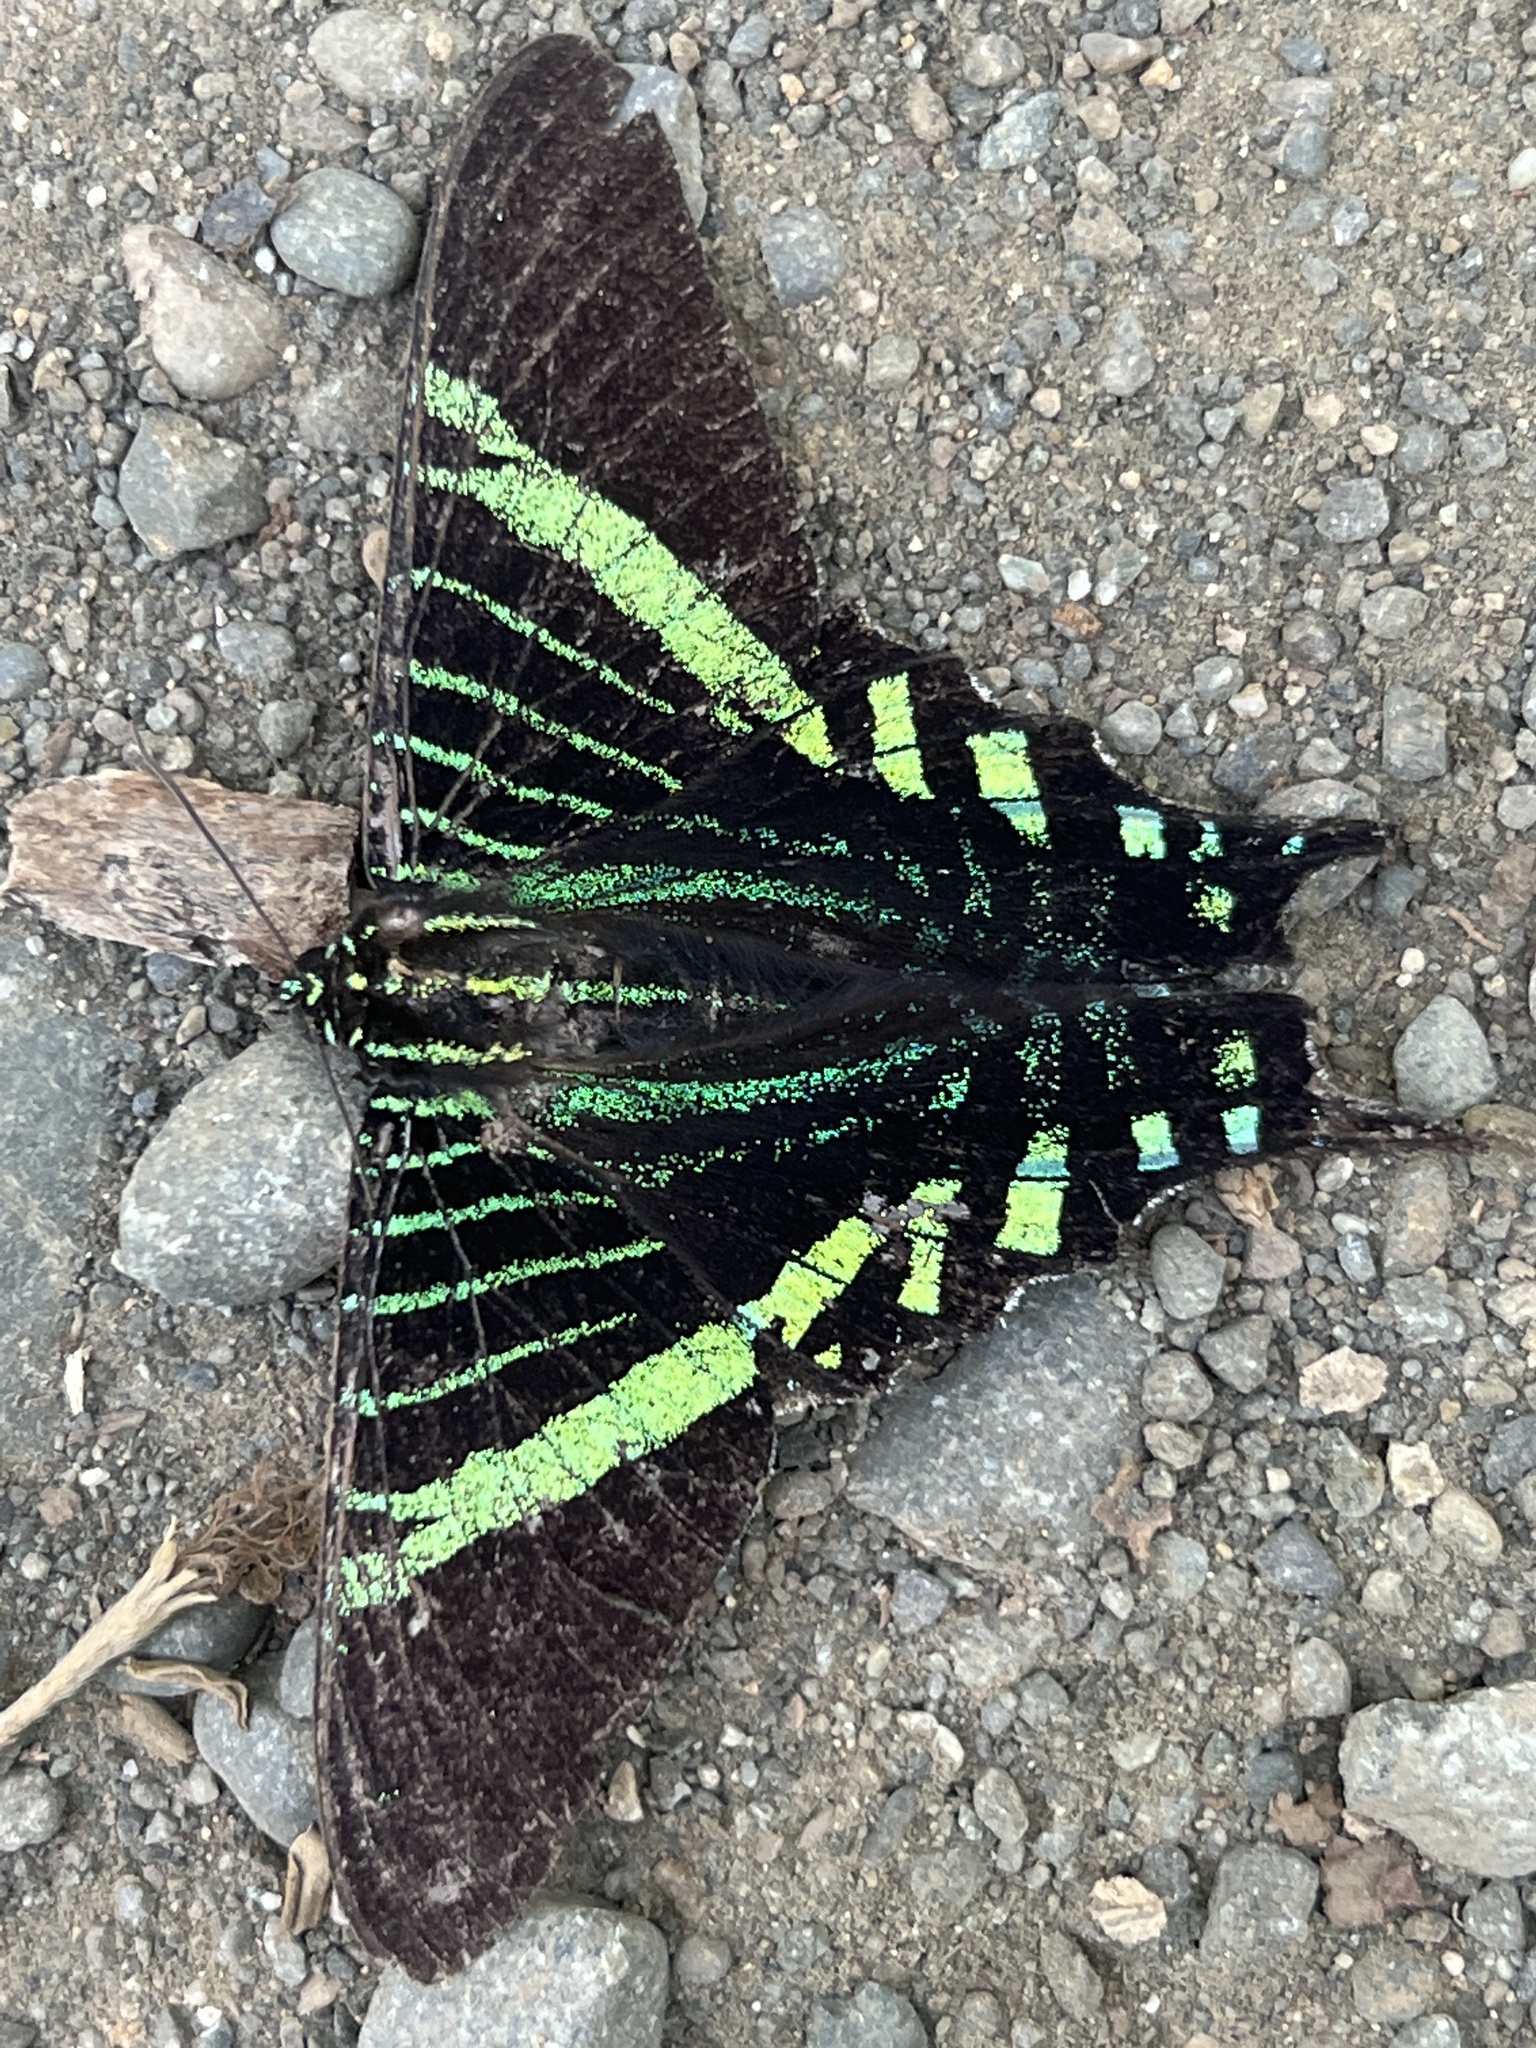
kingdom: Animalia
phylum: Arthropoda
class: Insecta
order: Lepidoptera
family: Uraniidae
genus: Urania
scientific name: Urania fulgens
